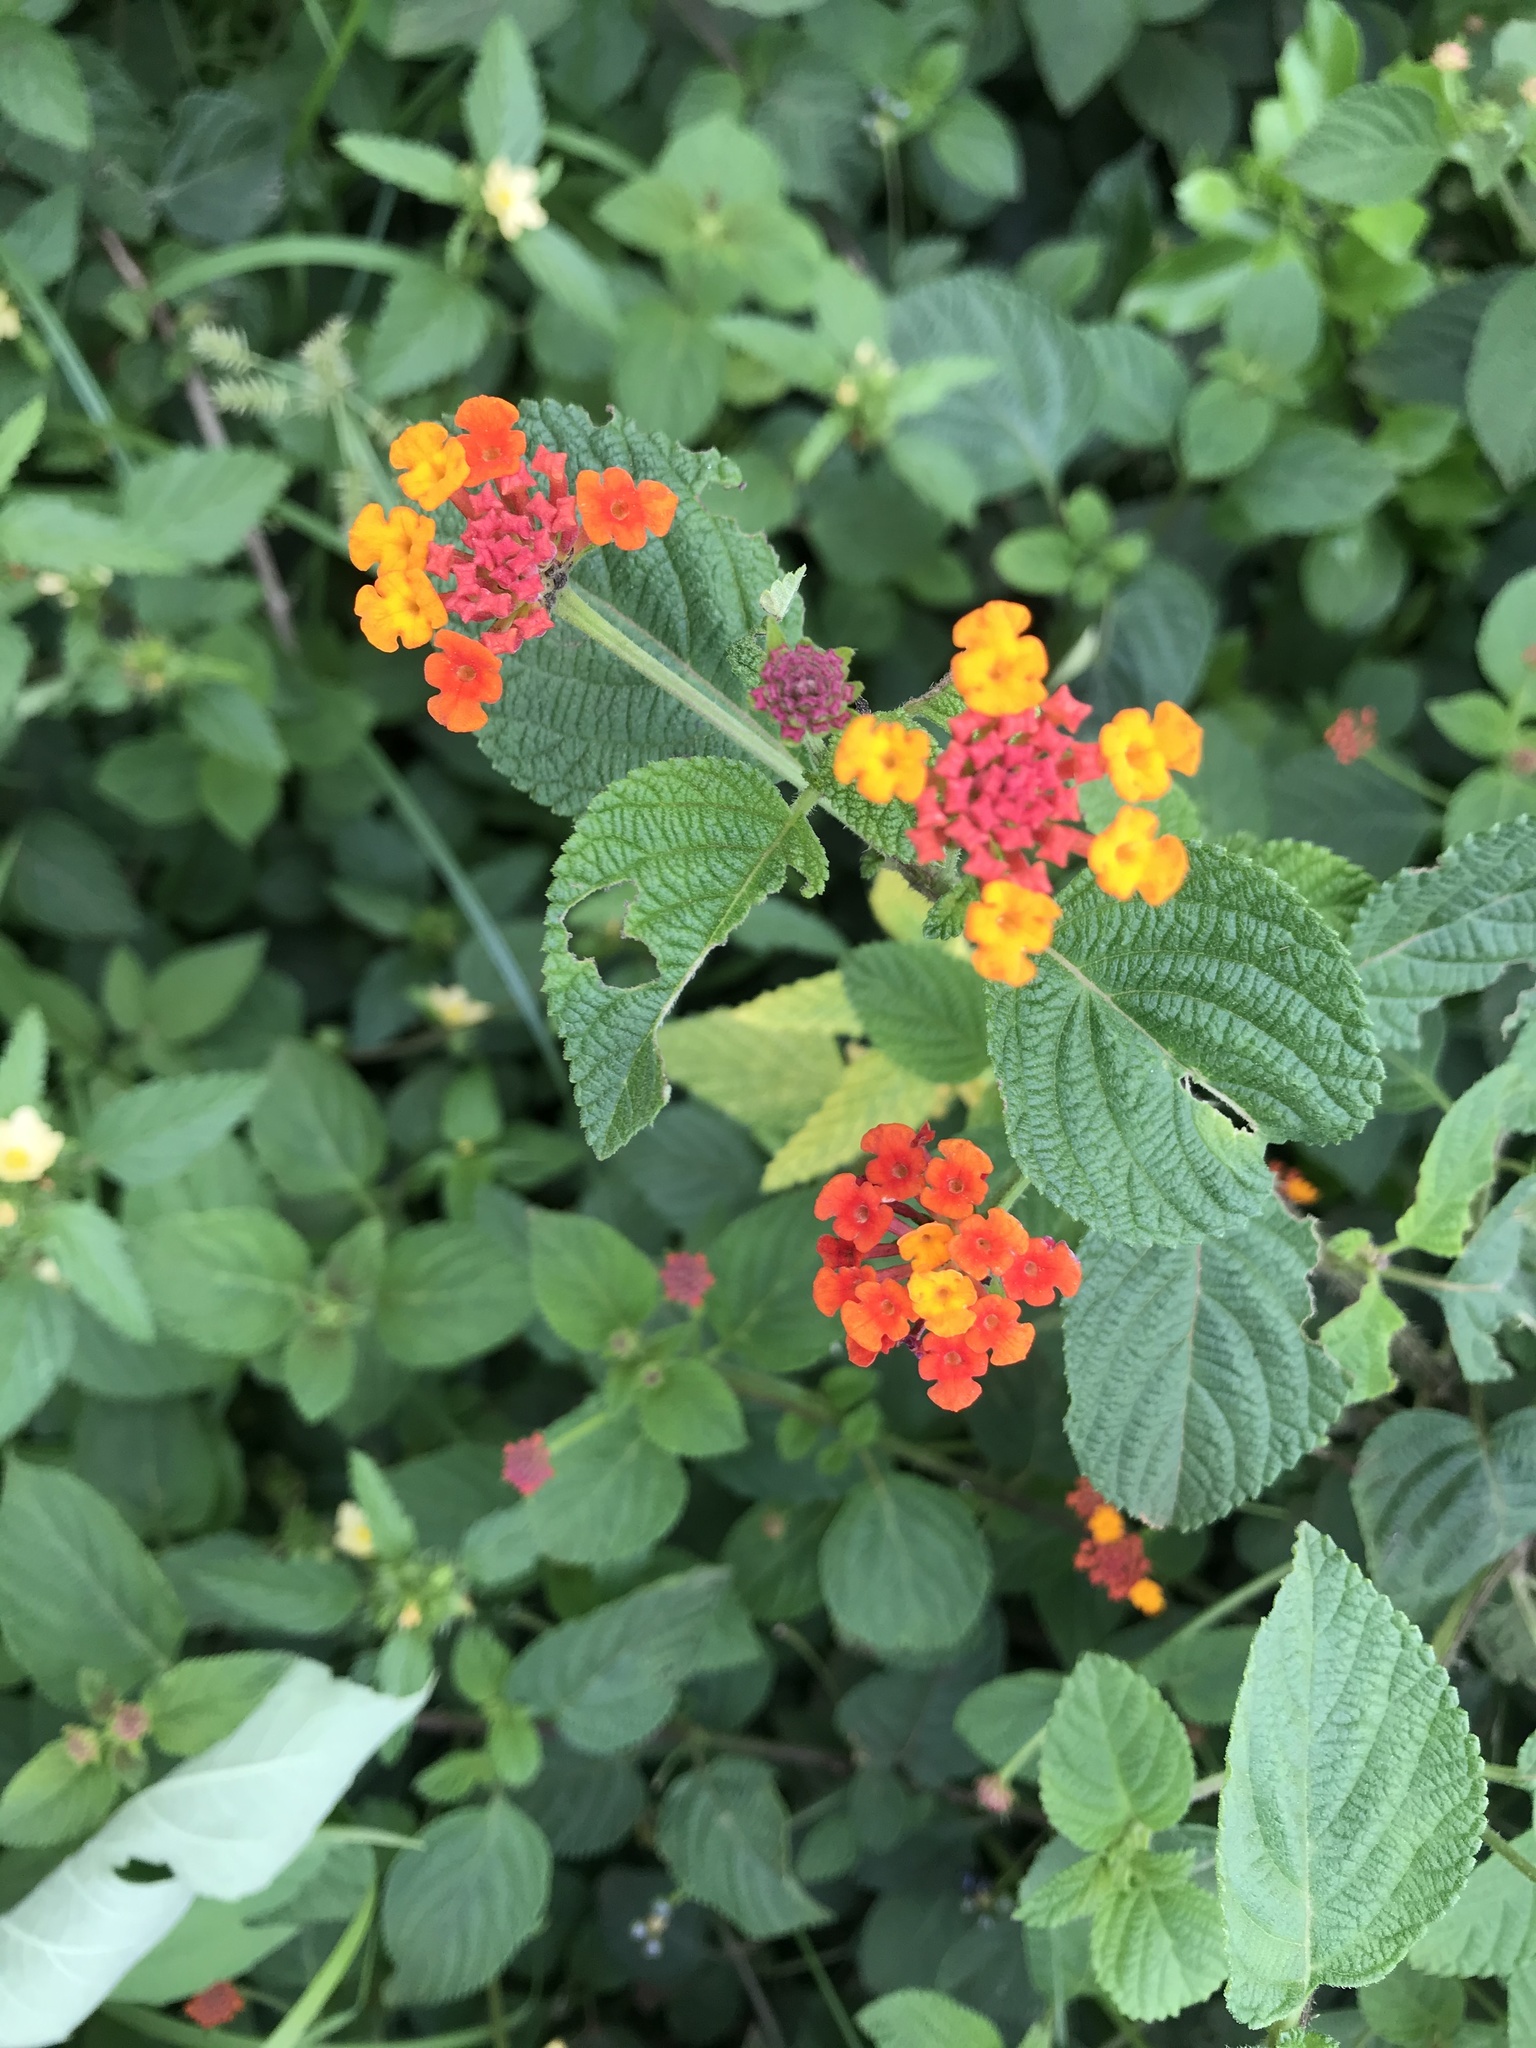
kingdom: Plantae
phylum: Tracheophyta
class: Magnoliopsida
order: Lamiales
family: Verbenaceae
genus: Lantana
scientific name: Lantana camara
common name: Lantana
